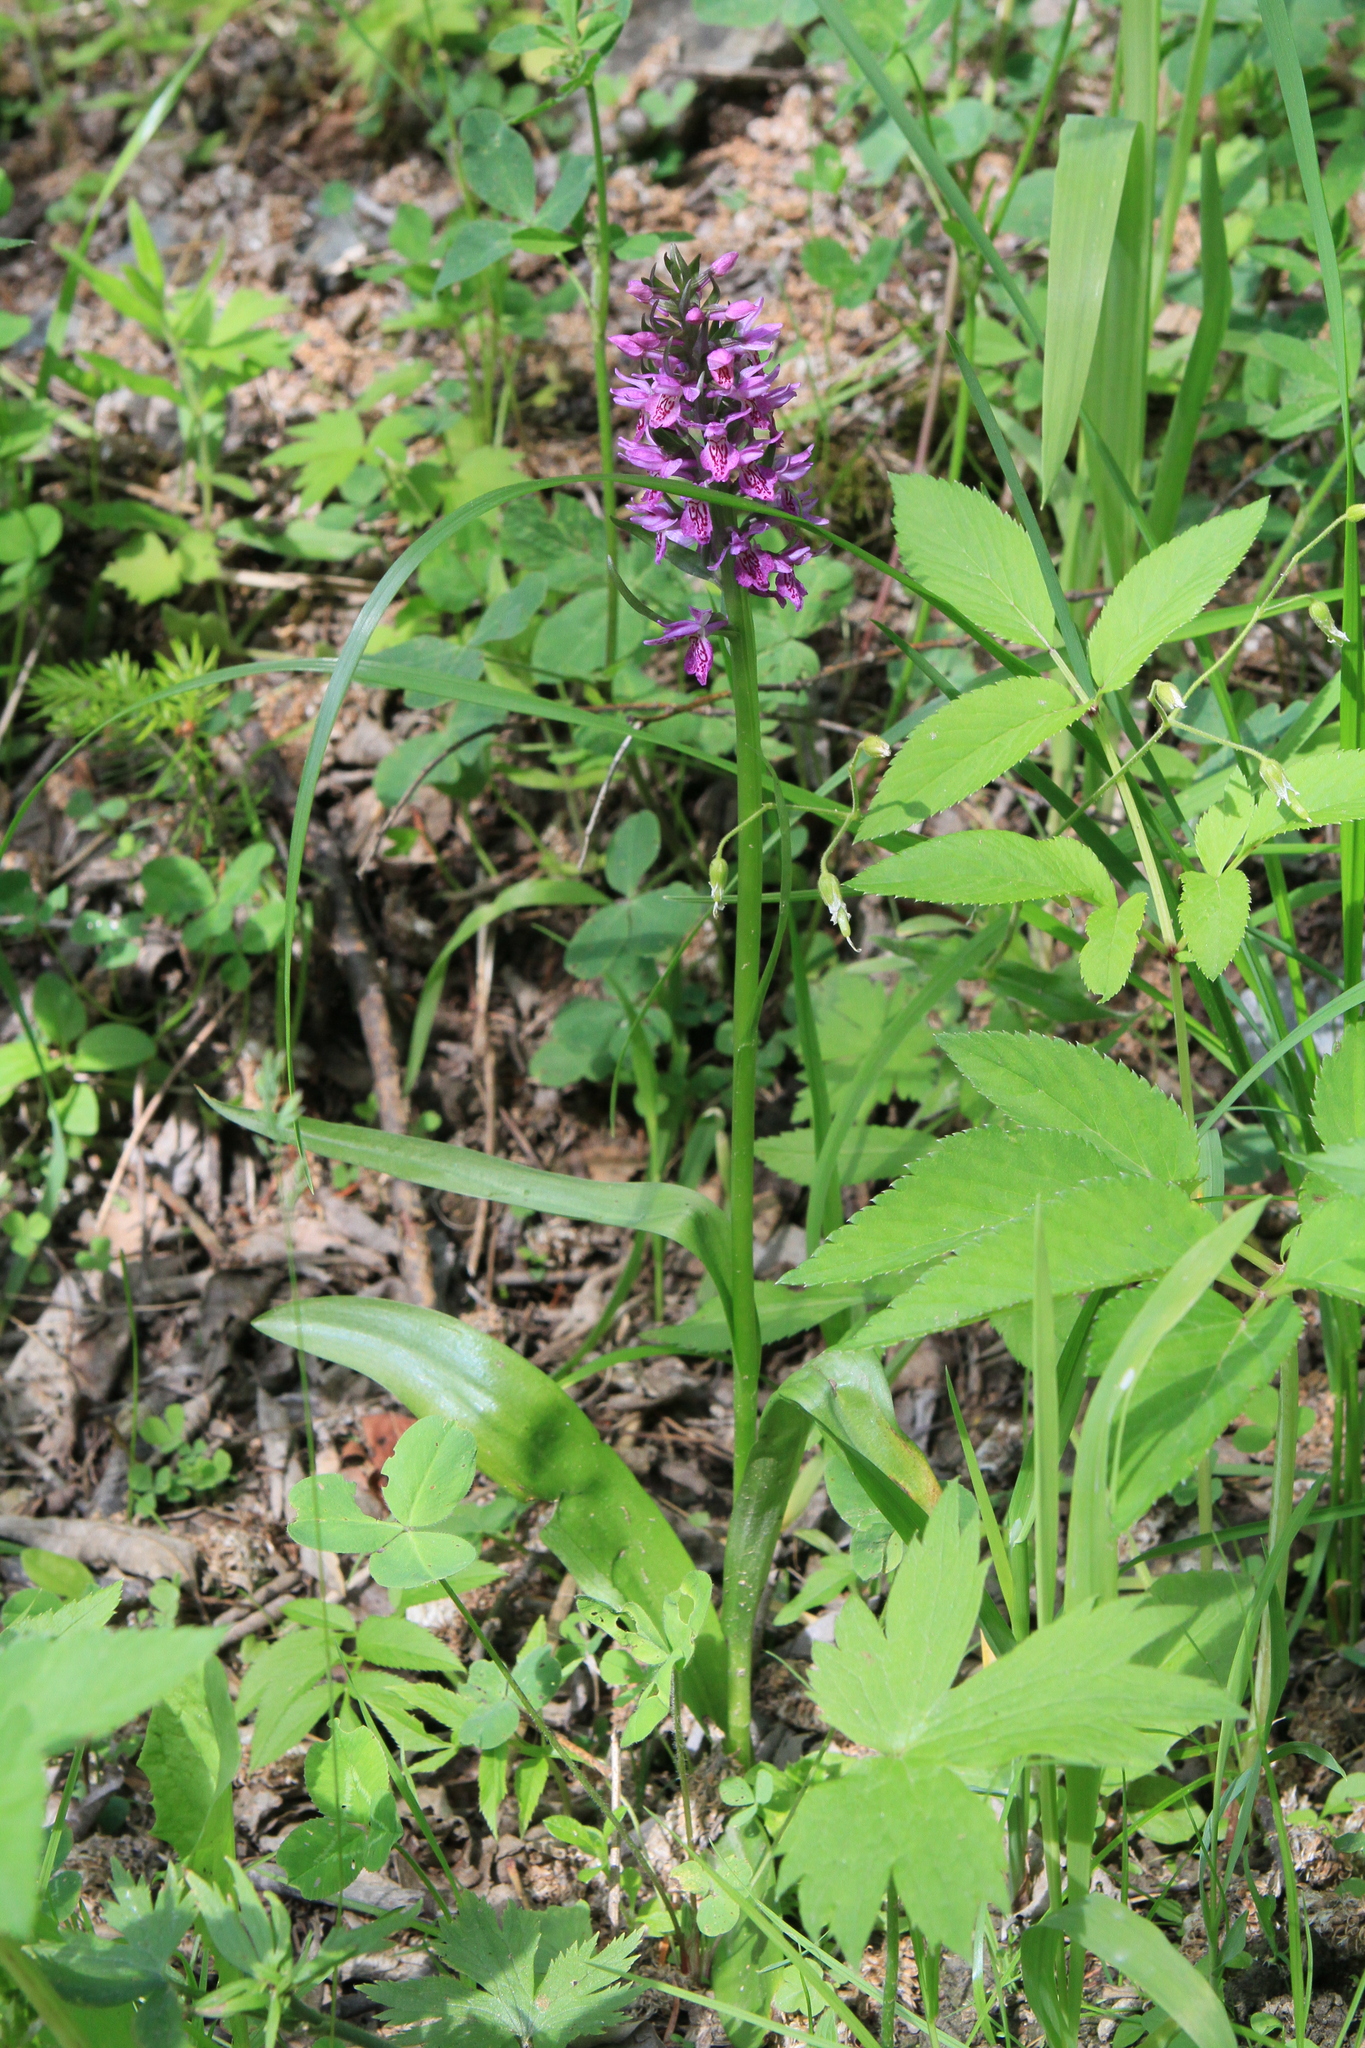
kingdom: Plantae
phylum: Tracheophyta
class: Liliopsida
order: Asparagales
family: Orchidaceae
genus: Dactylorhiza
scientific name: Dactylorhiza sibirica
